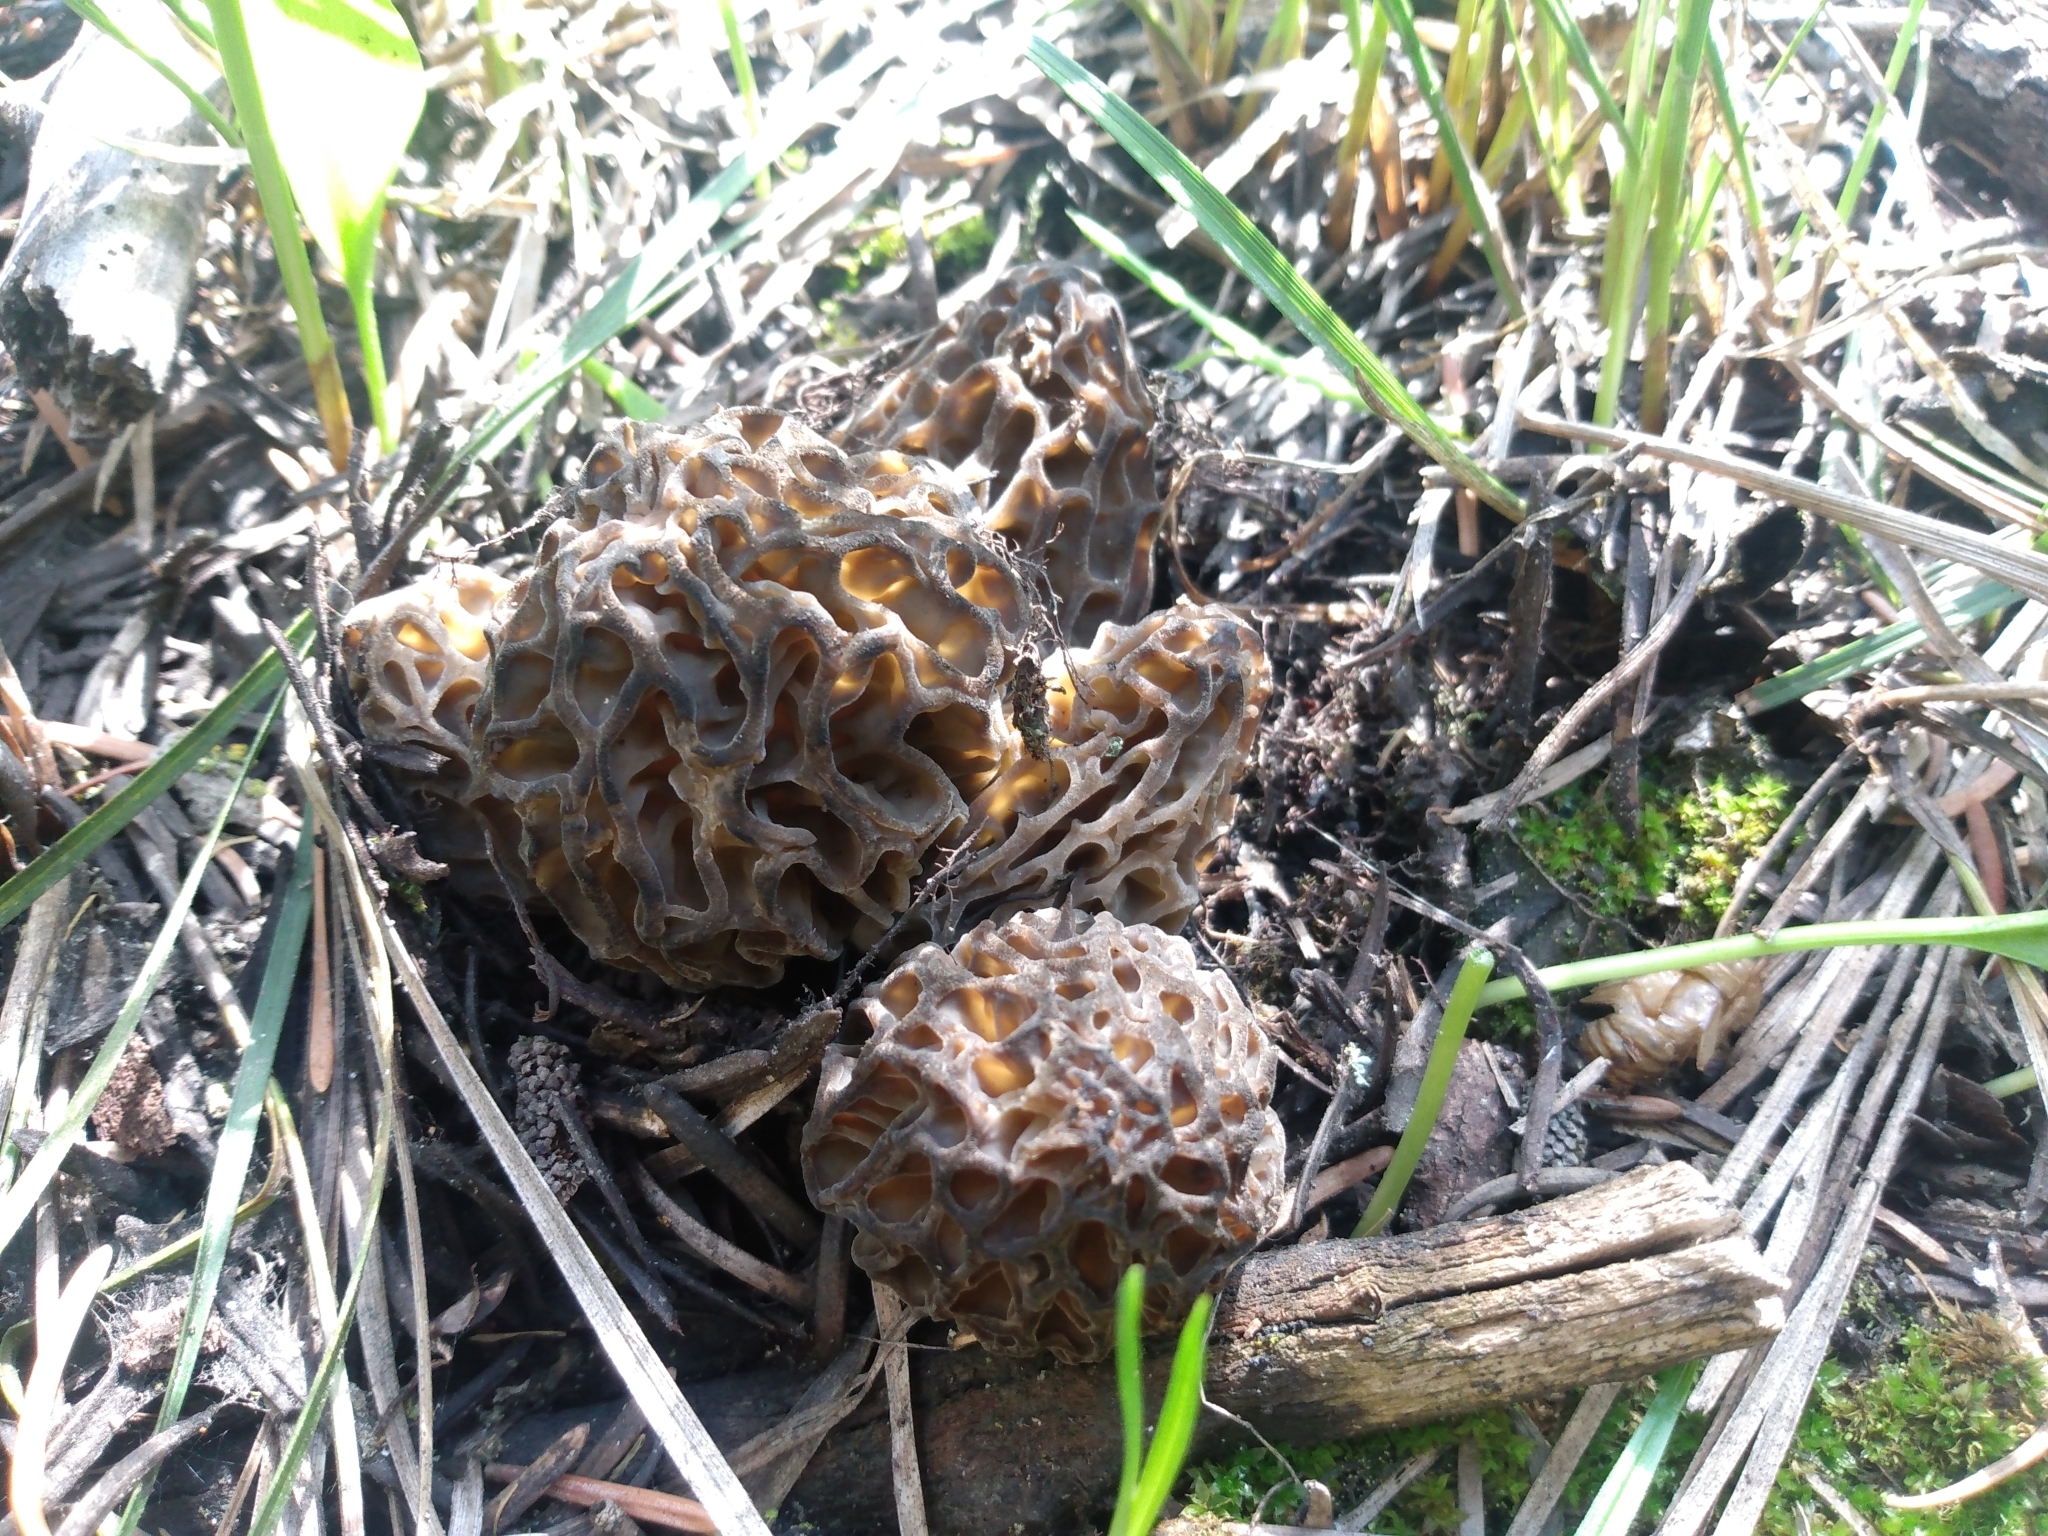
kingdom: Fungi
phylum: Ascomycota
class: Pezizomycetes
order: Pezizales
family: Morchellaceae
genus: Morchella
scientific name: Morchella snyderi
